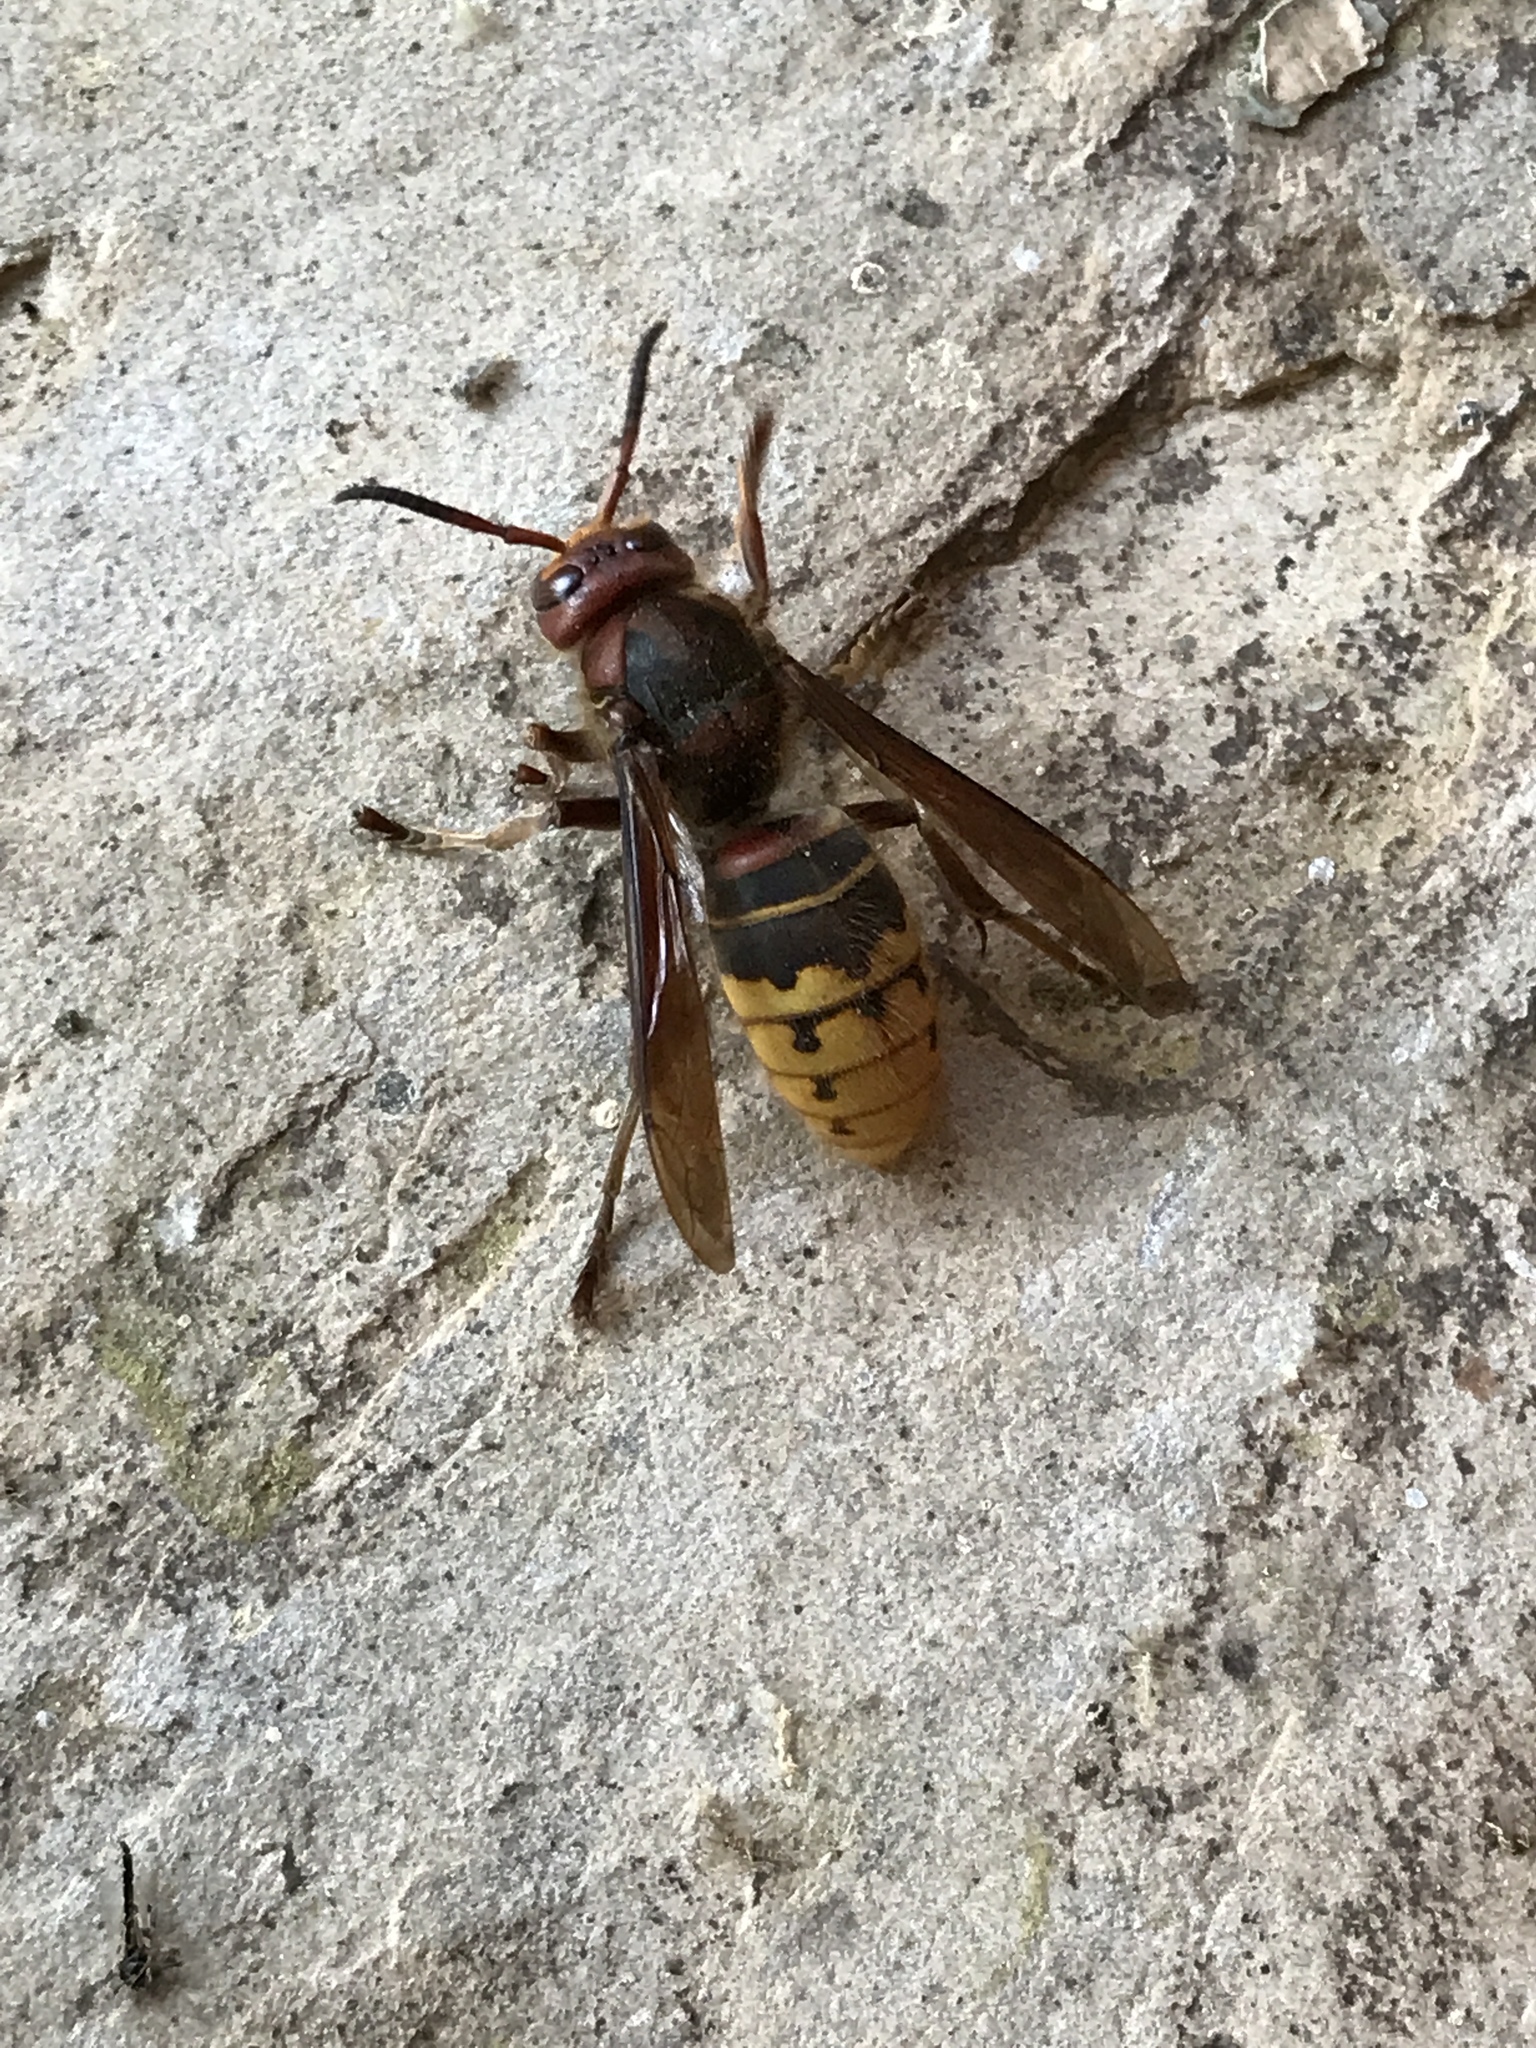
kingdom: Animalia
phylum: Arthropoda
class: Insecta
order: Hymenoptera
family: Vespidae
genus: Vespa
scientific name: Vespa crabro
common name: Hornet
